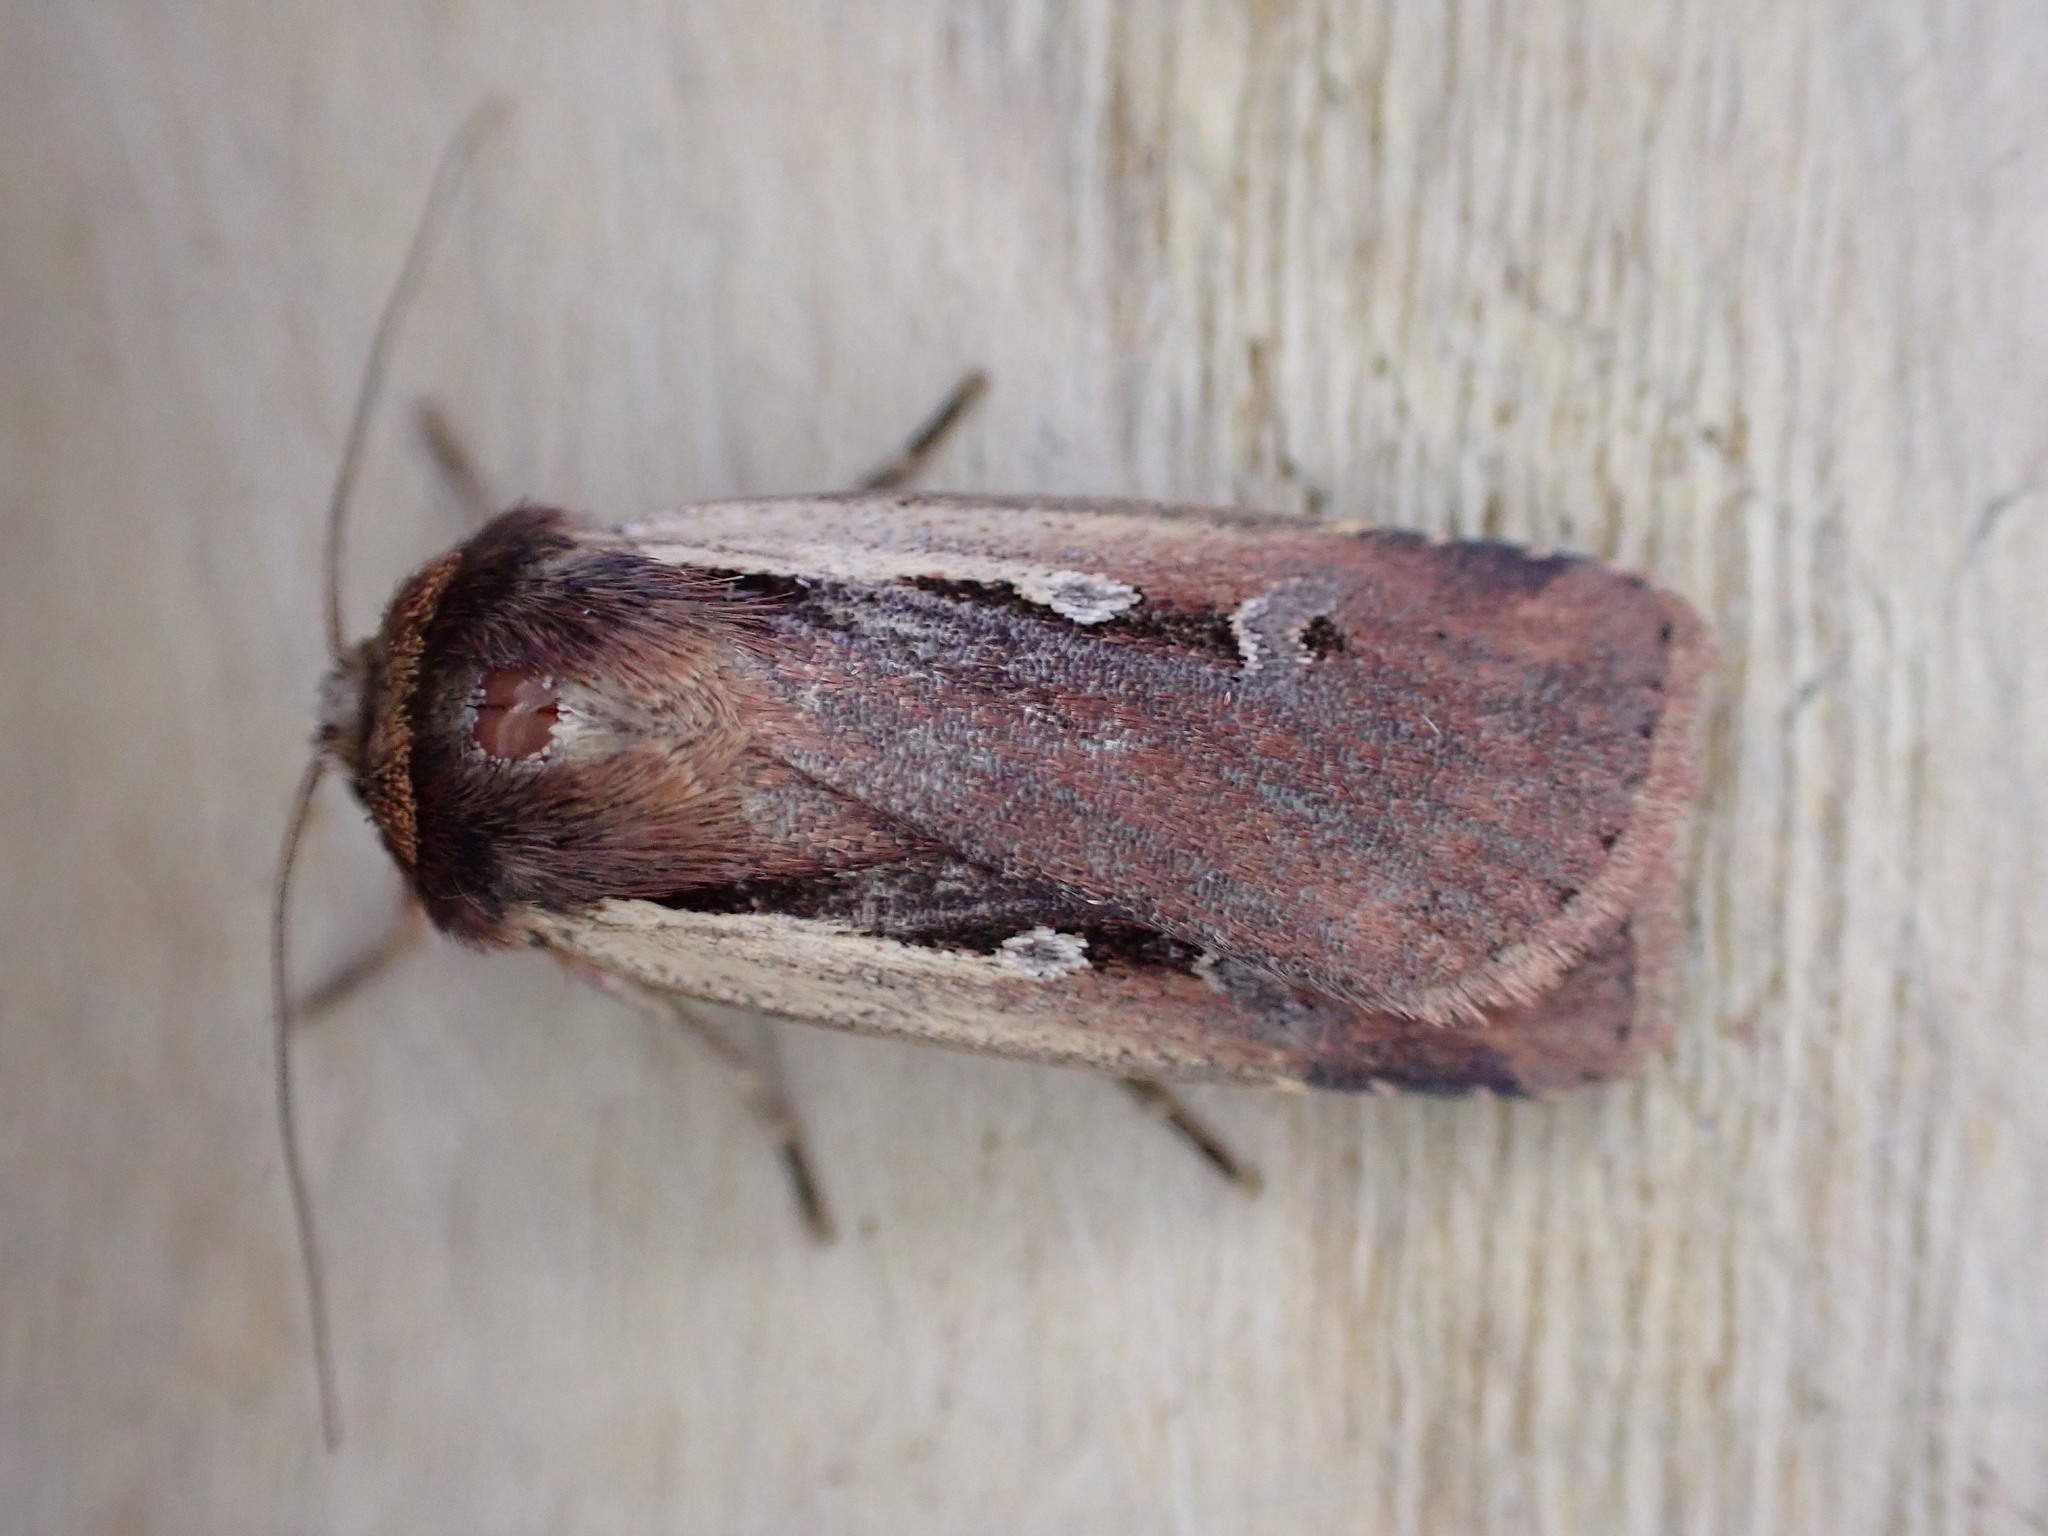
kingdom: Animalia
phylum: Arthropoda
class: Insecta
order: Lepidoptera
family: Noctuidae
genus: Ochropleura
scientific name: Ochropleura plecta
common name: Flame shoulder
